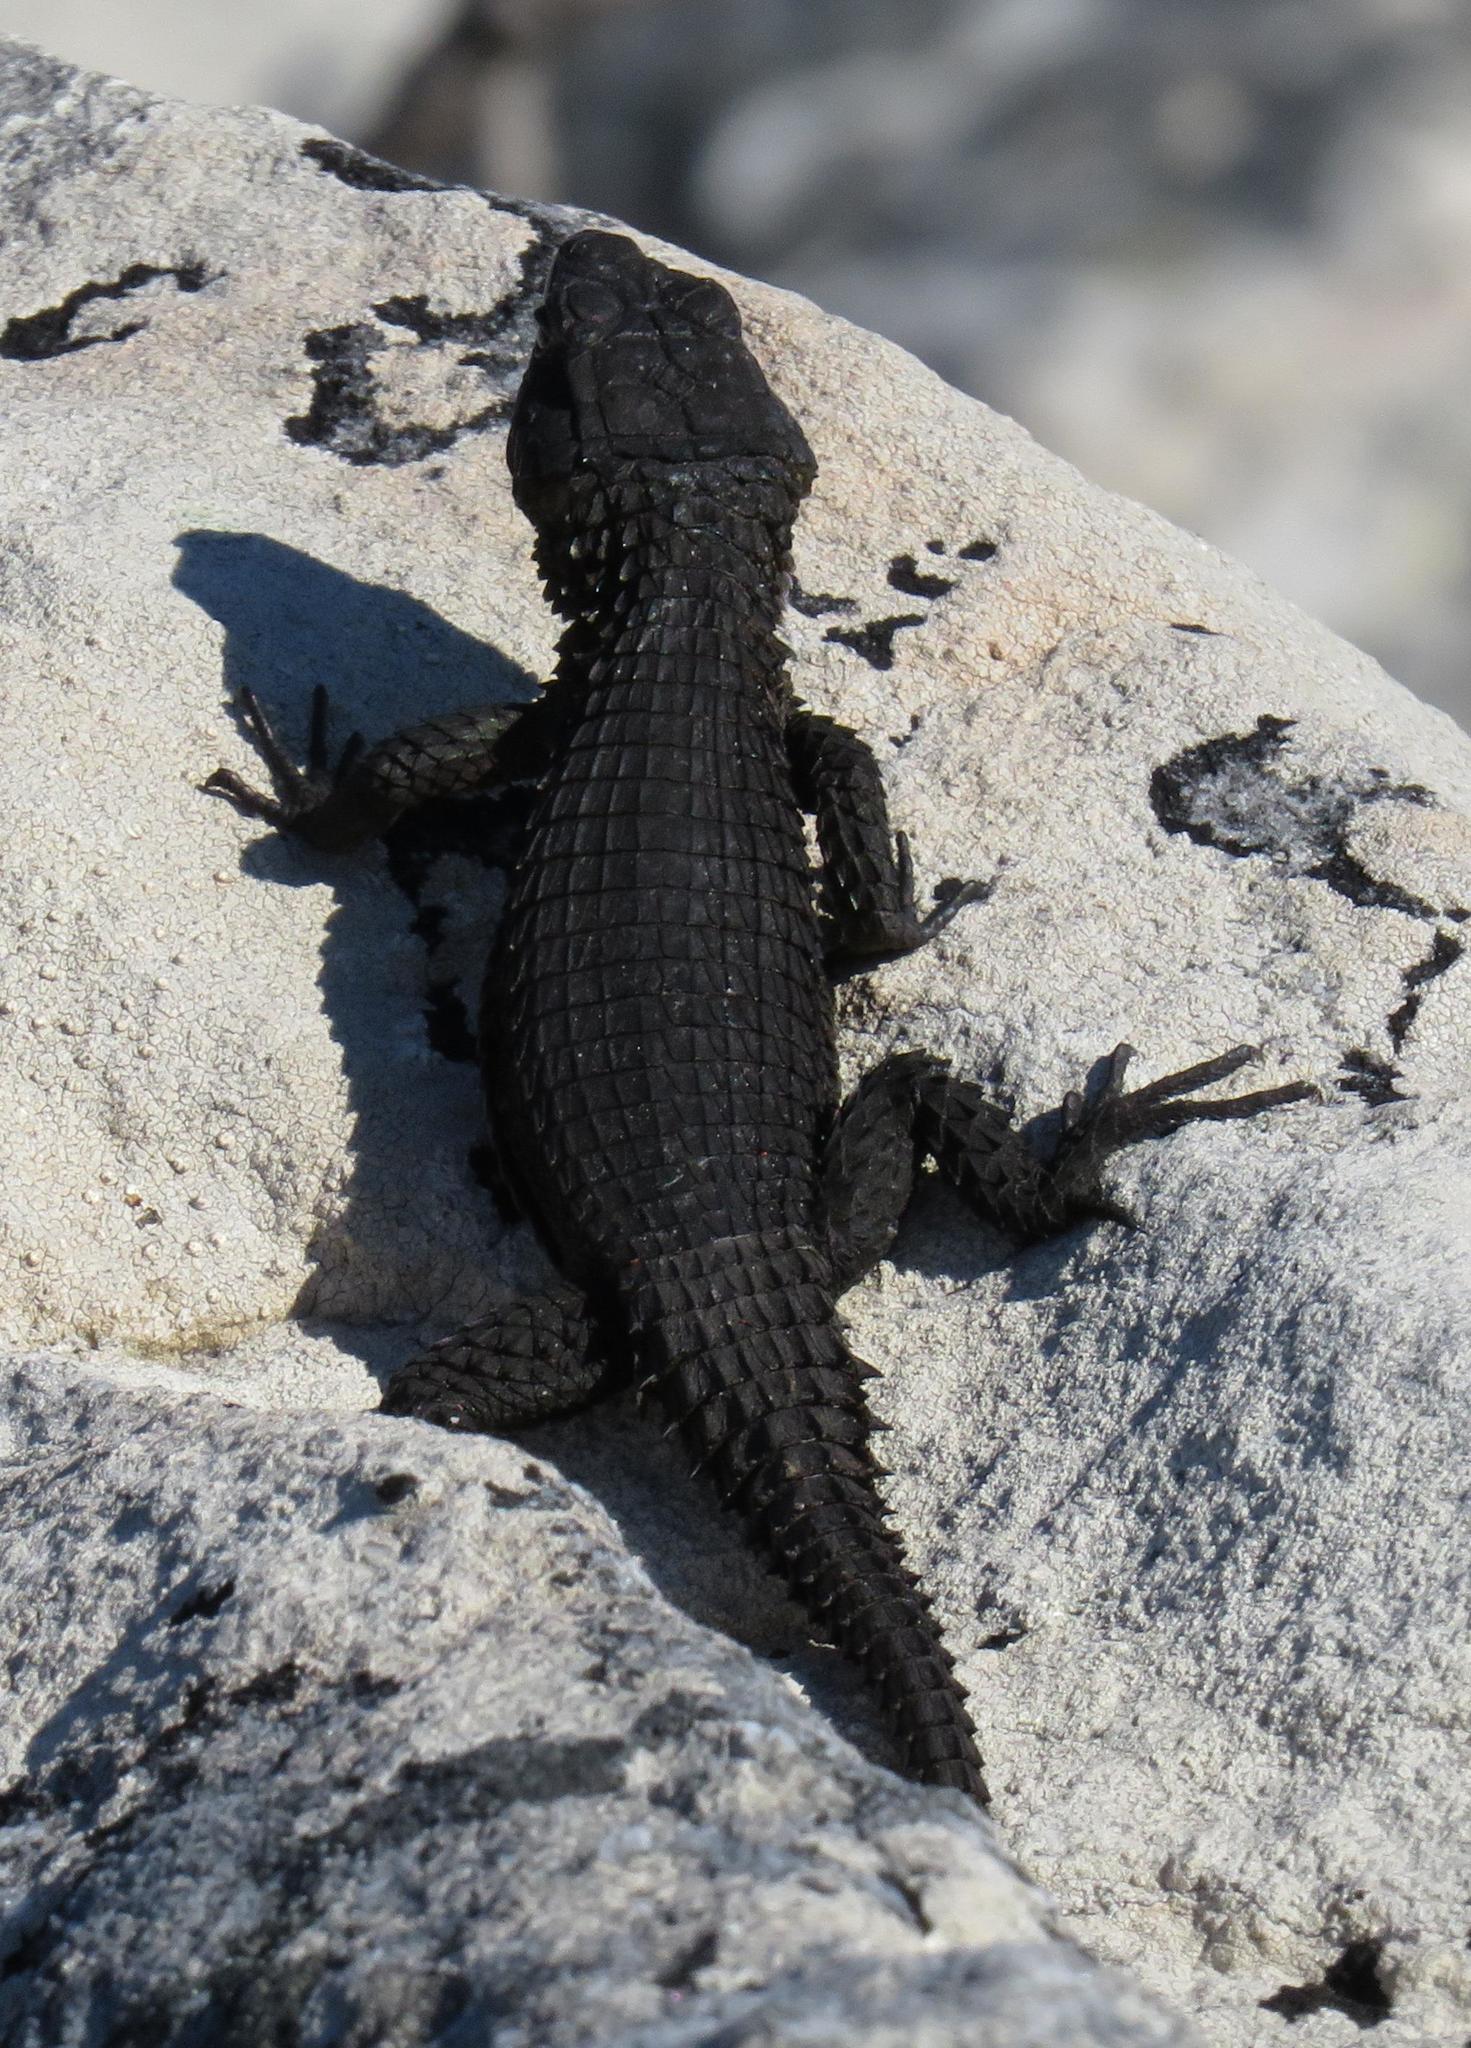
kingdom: Animalia
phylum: Chordata
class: Squamata
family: Cordylidae
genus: Cordylus
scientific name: Cordylus niger
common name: Black girdled lizard
